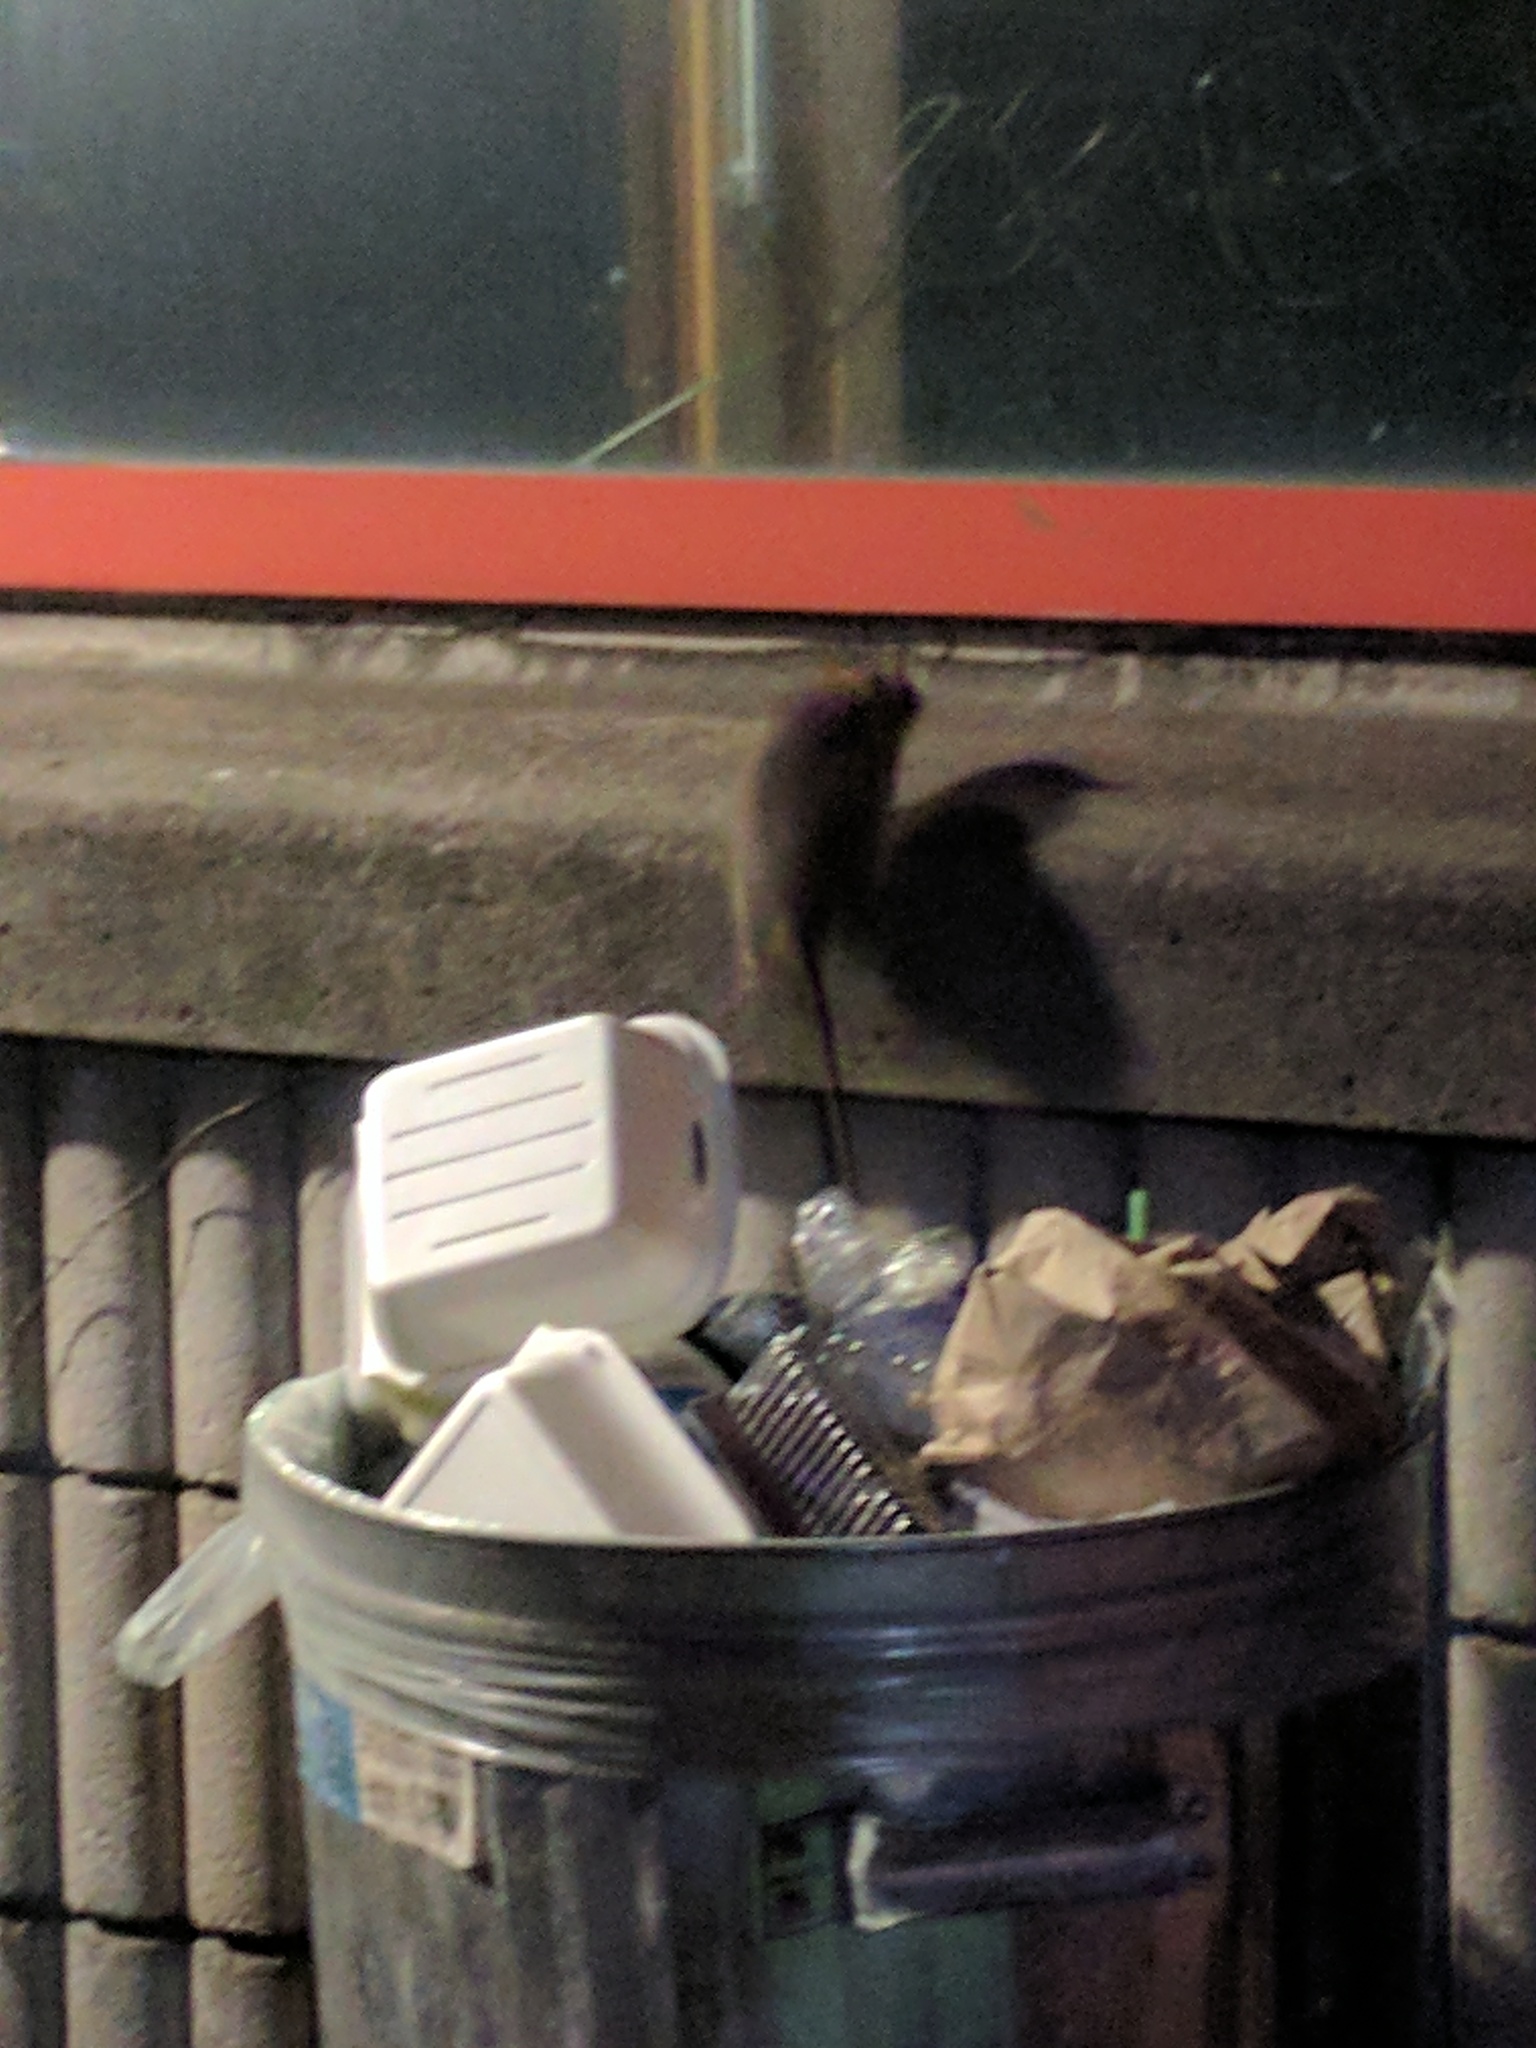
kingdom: Animalia
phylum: Chordata
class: Mammalia
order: Rodentia
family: Muridae
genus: Rattus
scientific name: Rattus norvegicus
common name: Brown rat
